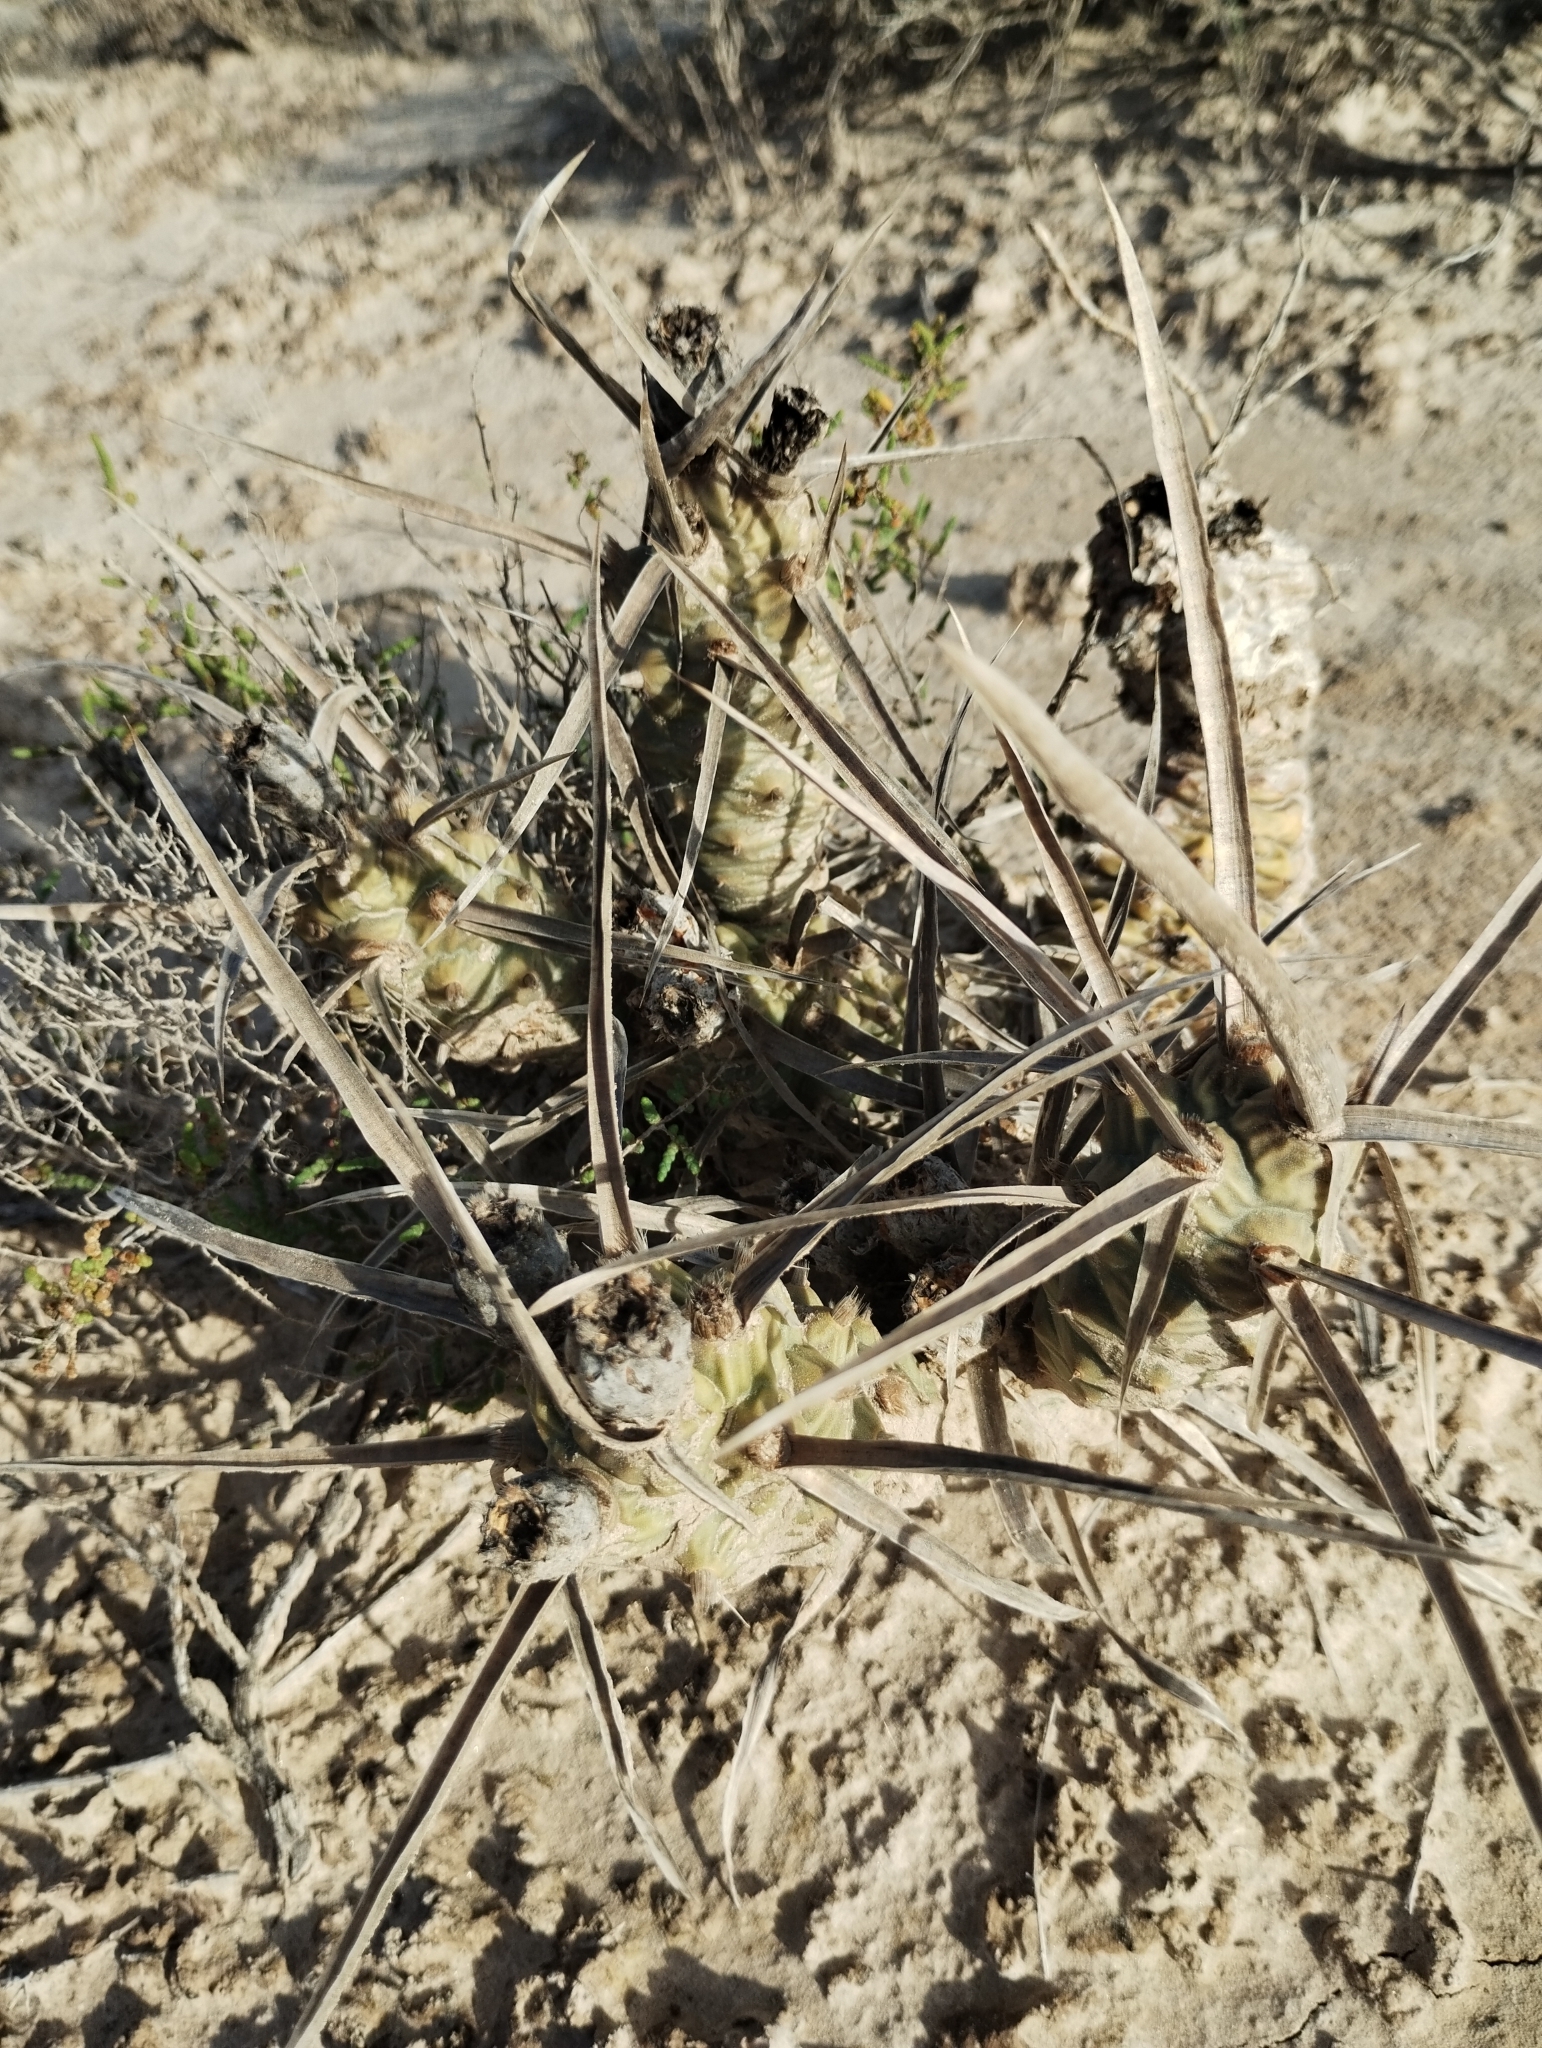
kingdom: Plantae
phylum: Tracheophyta
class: Magnoliopsida
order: Caryophyllales
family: Cactaceae
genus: Tephrocactus
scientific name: Tephrocactus articulatus
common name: Paper cactus
